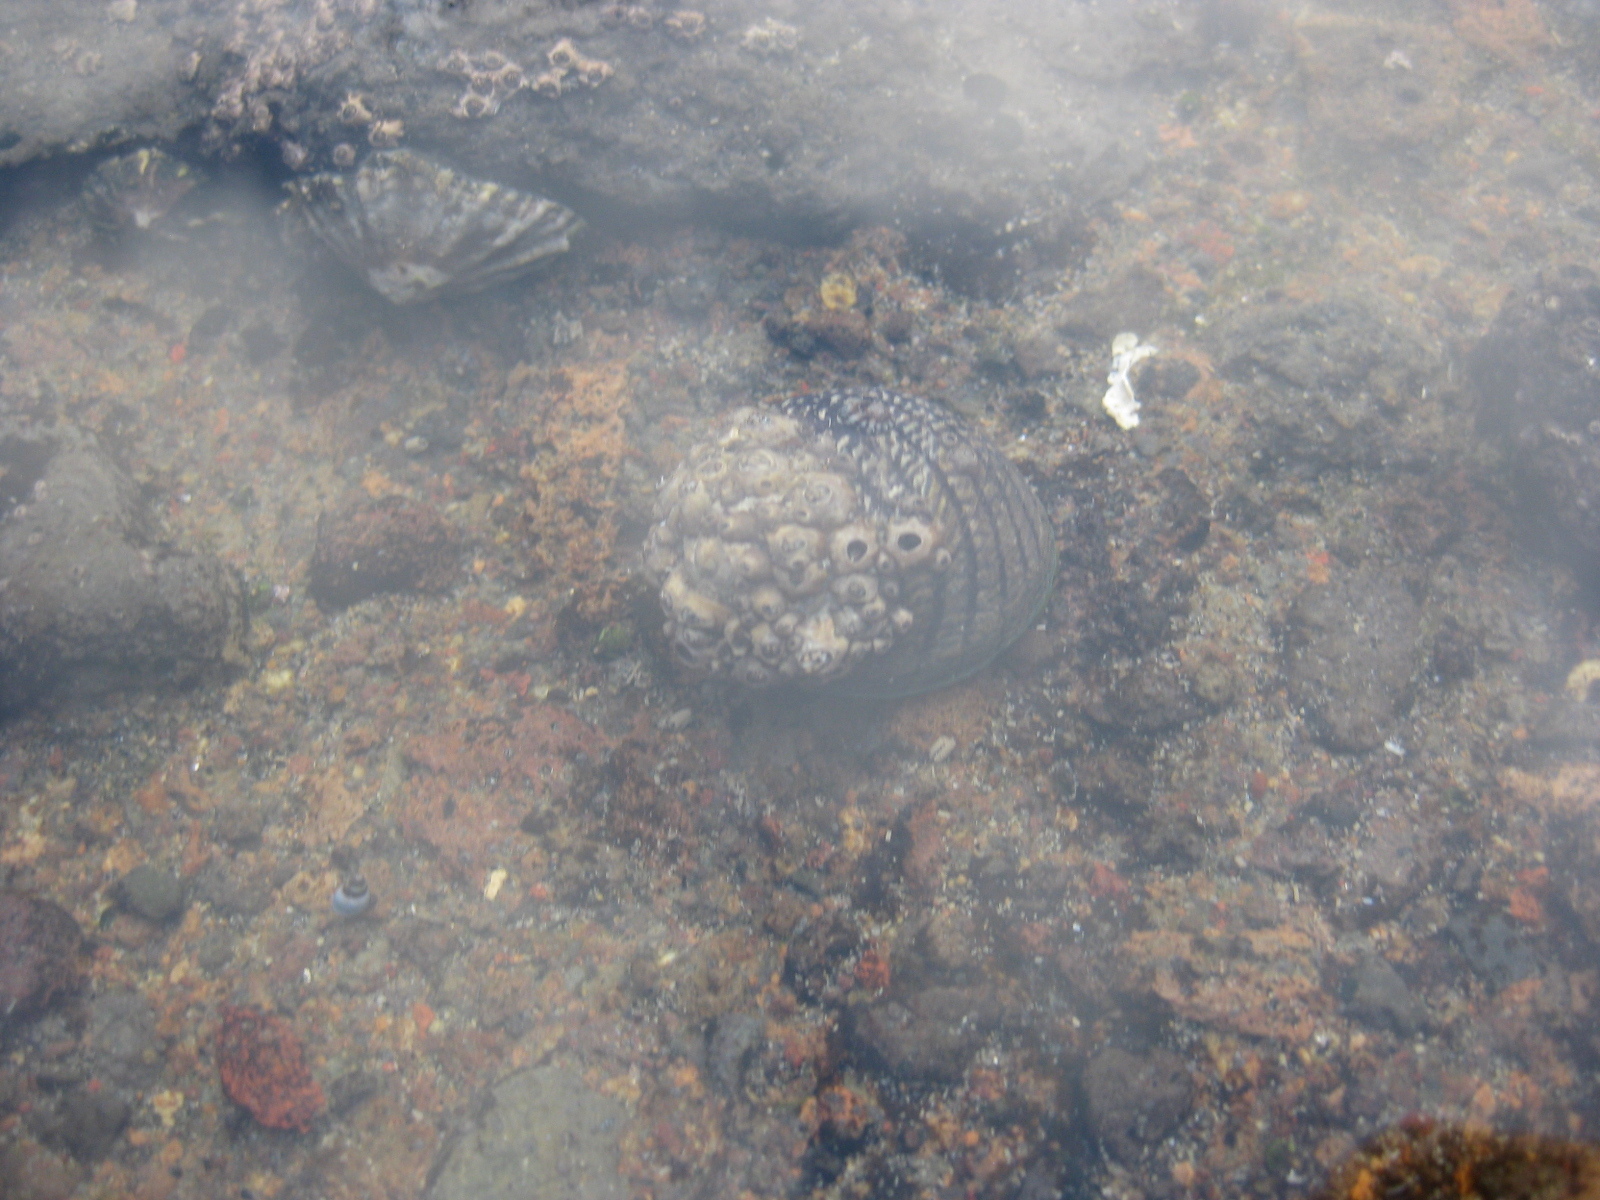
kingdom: Animalia
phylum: Mollusca
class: Gastropoda
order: Trochida
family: Trochidae
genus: Diloma
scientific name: Diloma aethiops
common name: Scorched monodont
